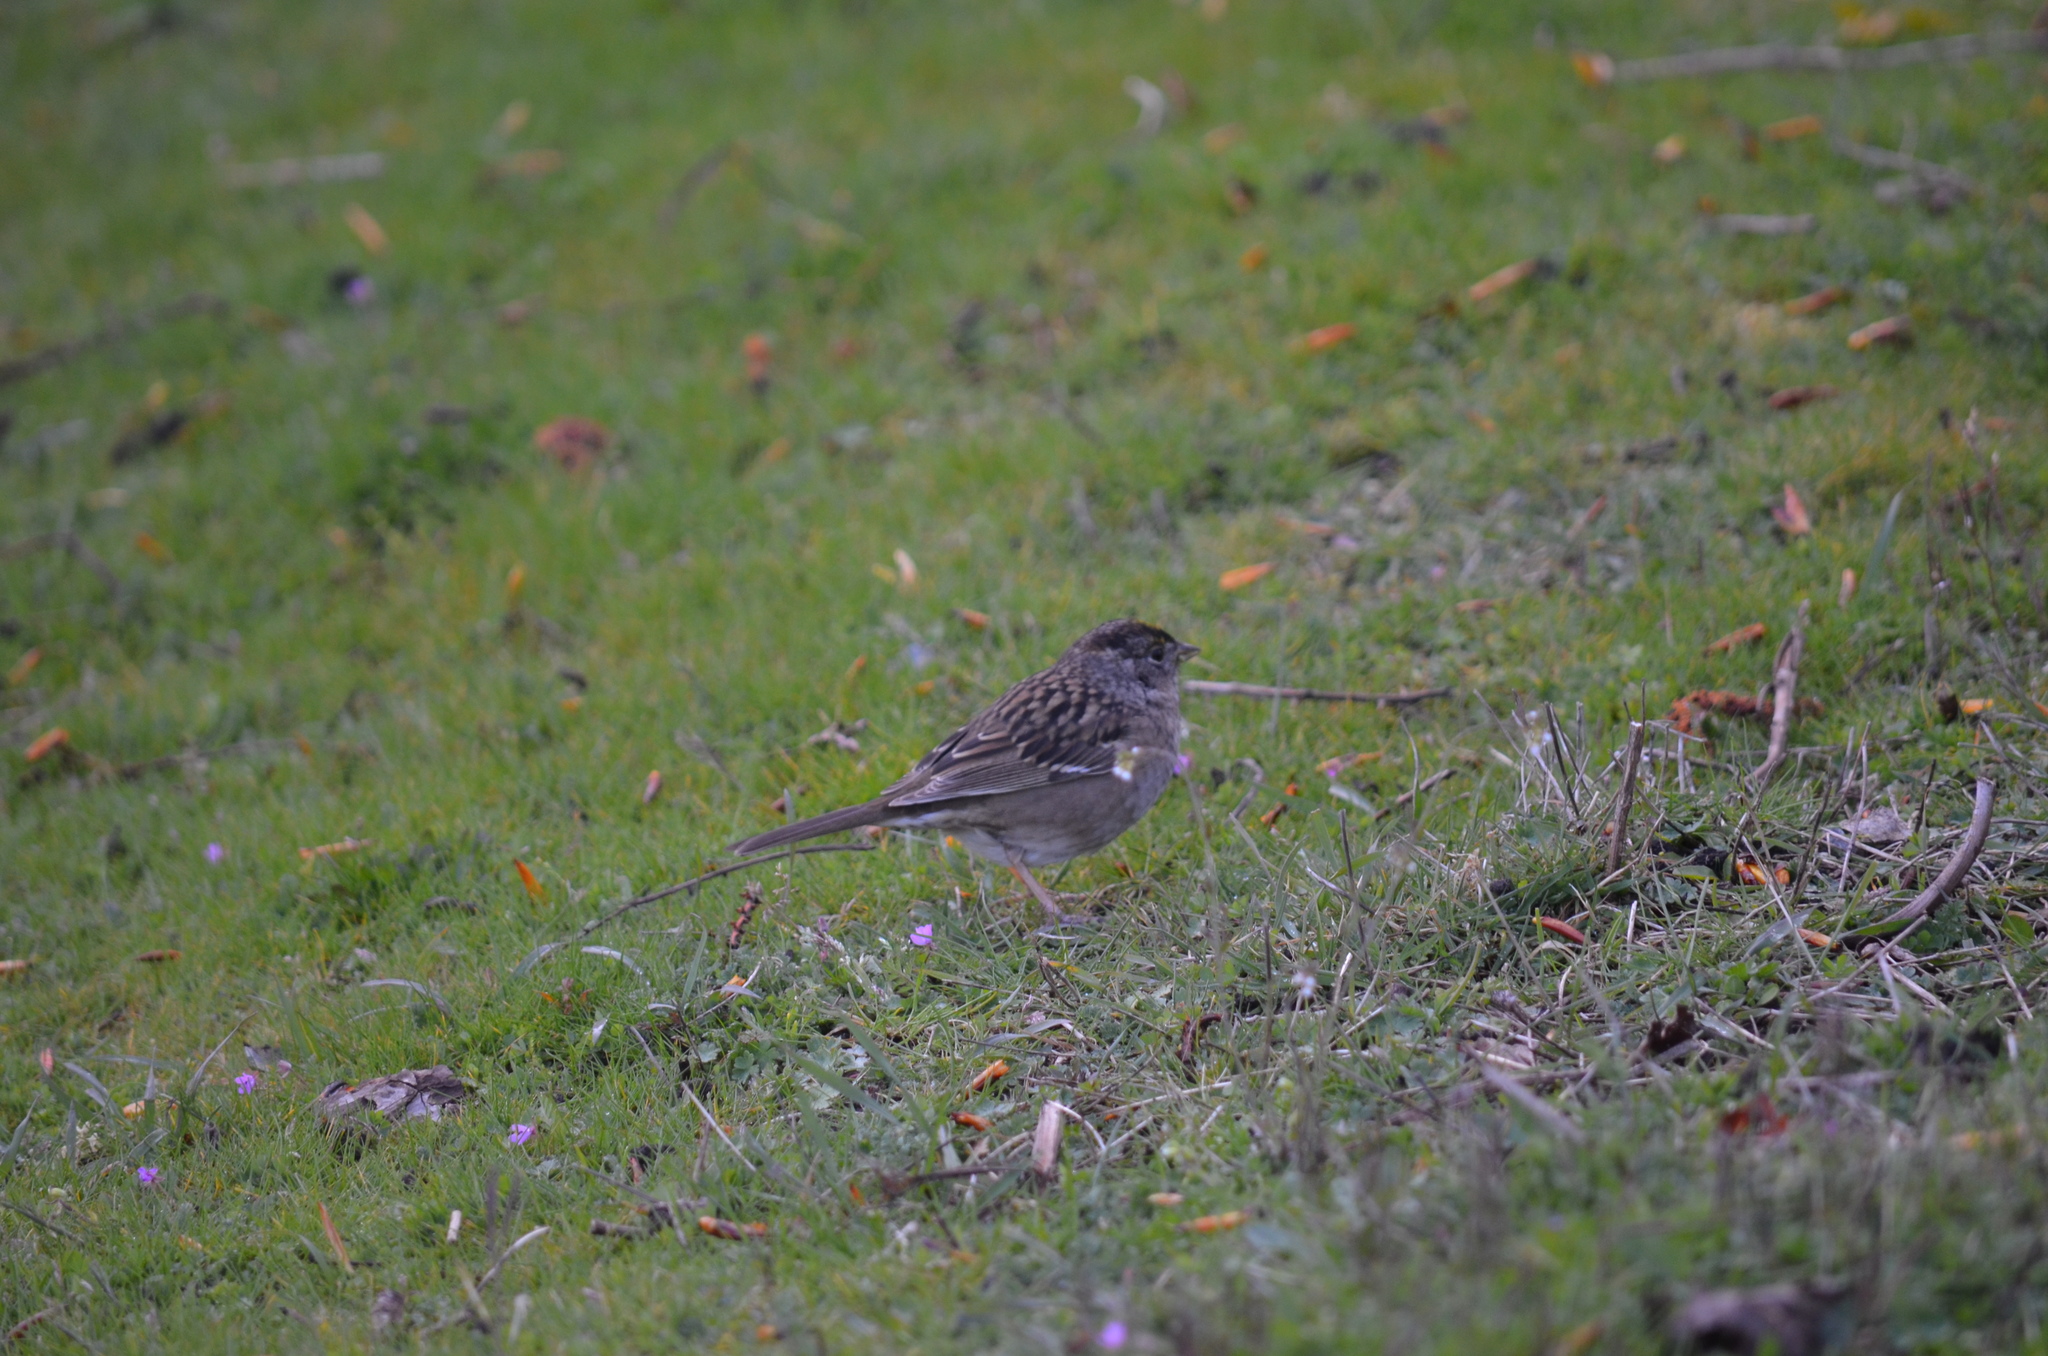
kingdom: Animalia
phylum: Chordata
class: Aves
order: Passeriformes
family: Passerellidae
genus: Zonotrichia
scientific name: Zonotrichia atricapilla
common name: Golden-crowned sparrow
